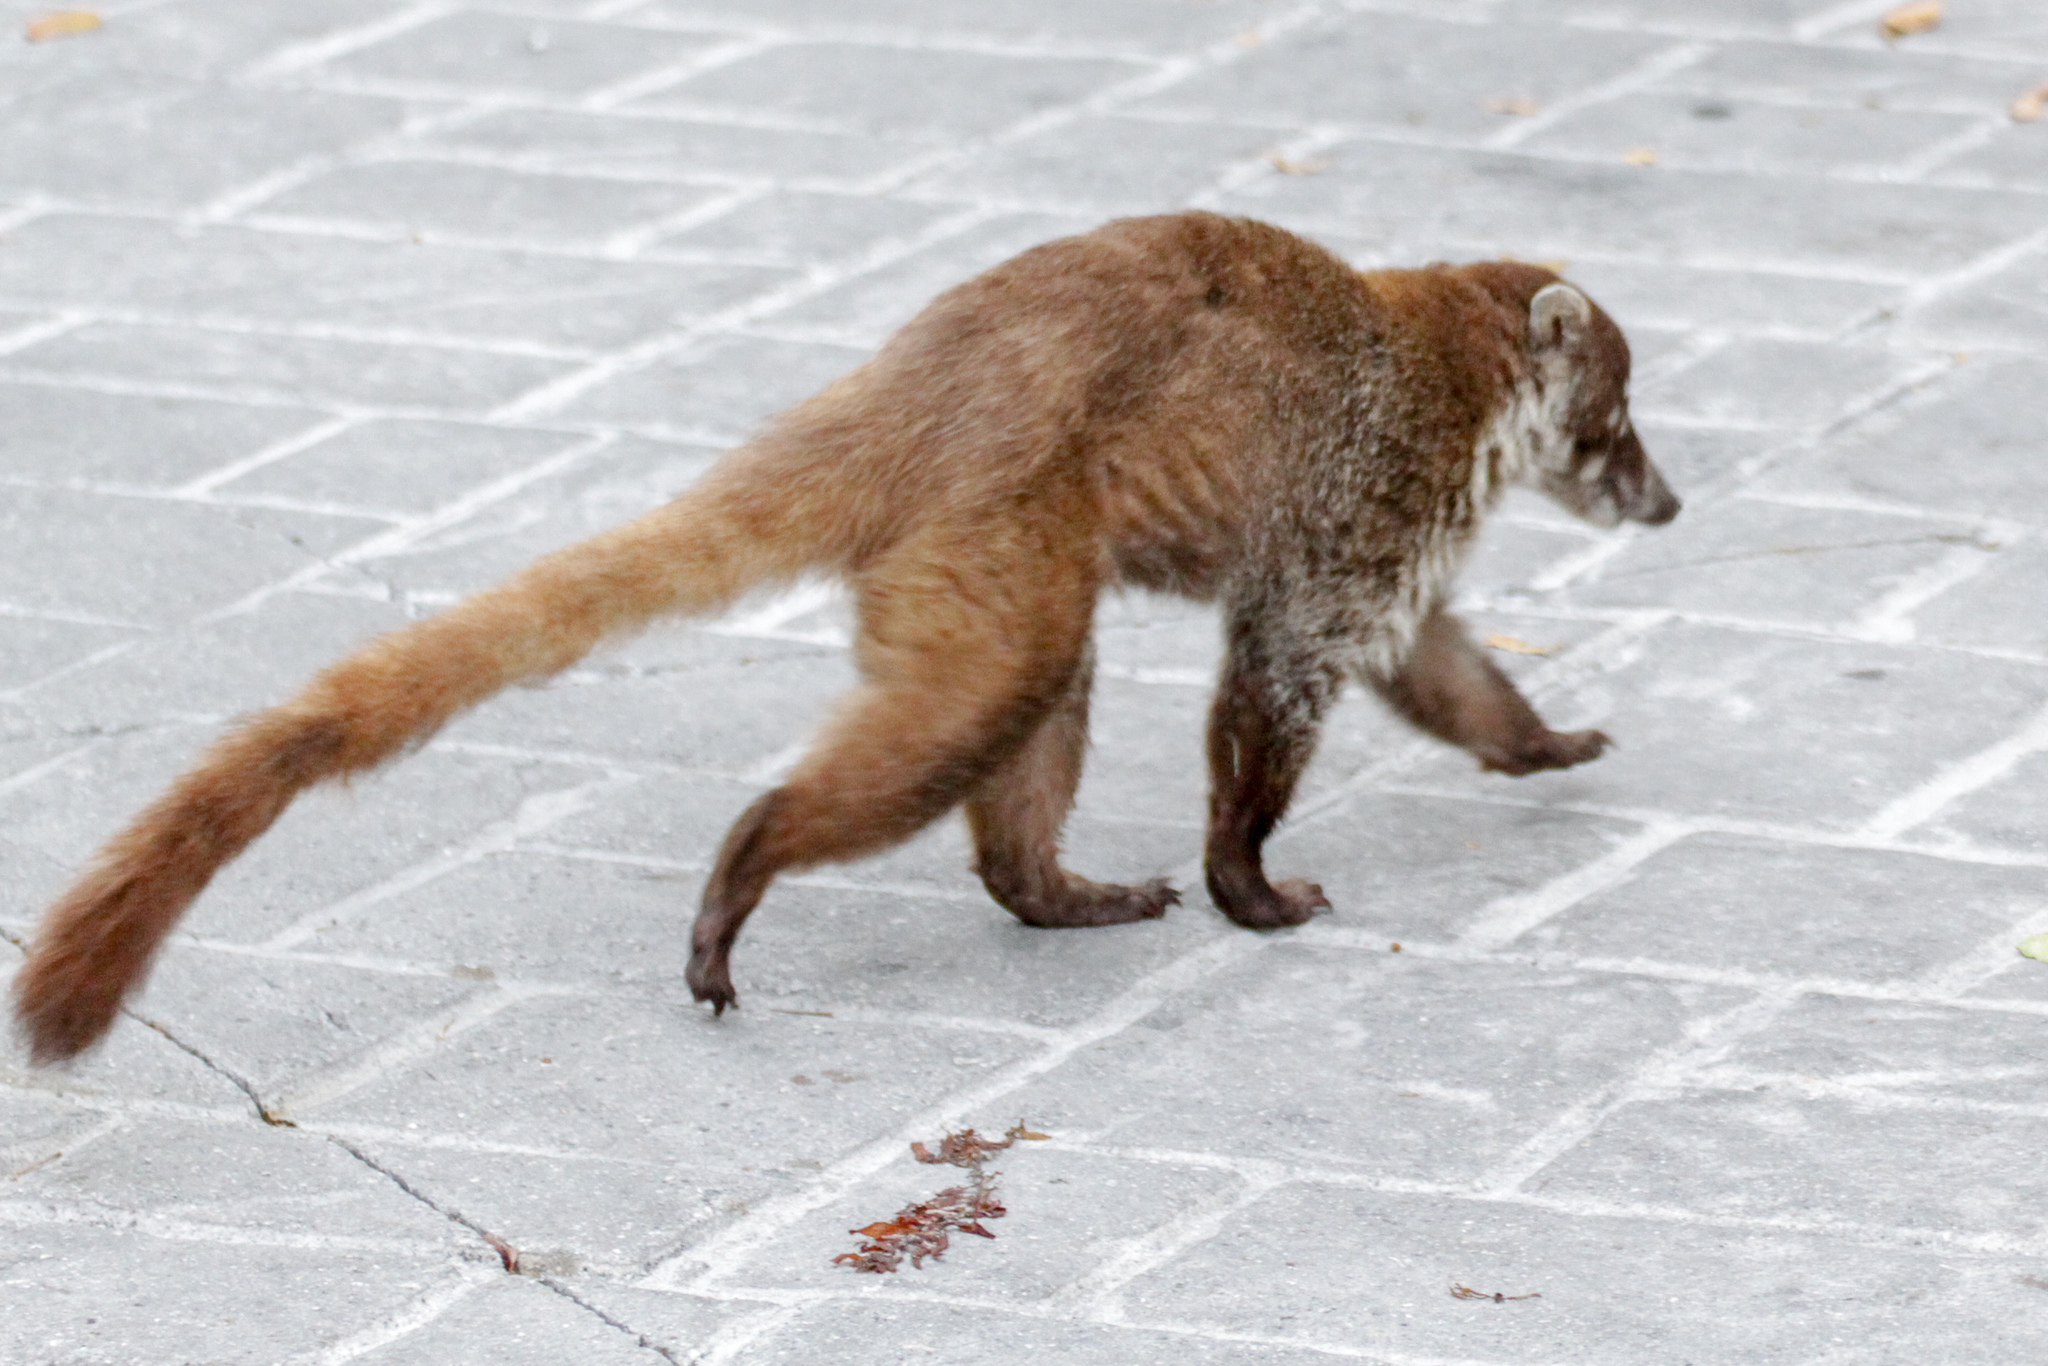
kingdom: Animalia
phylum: Chordata
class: Mammalia
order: Carnivora
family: Procyonidae
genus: Nasua
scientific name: Nasua narica
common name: White-nosed coati
